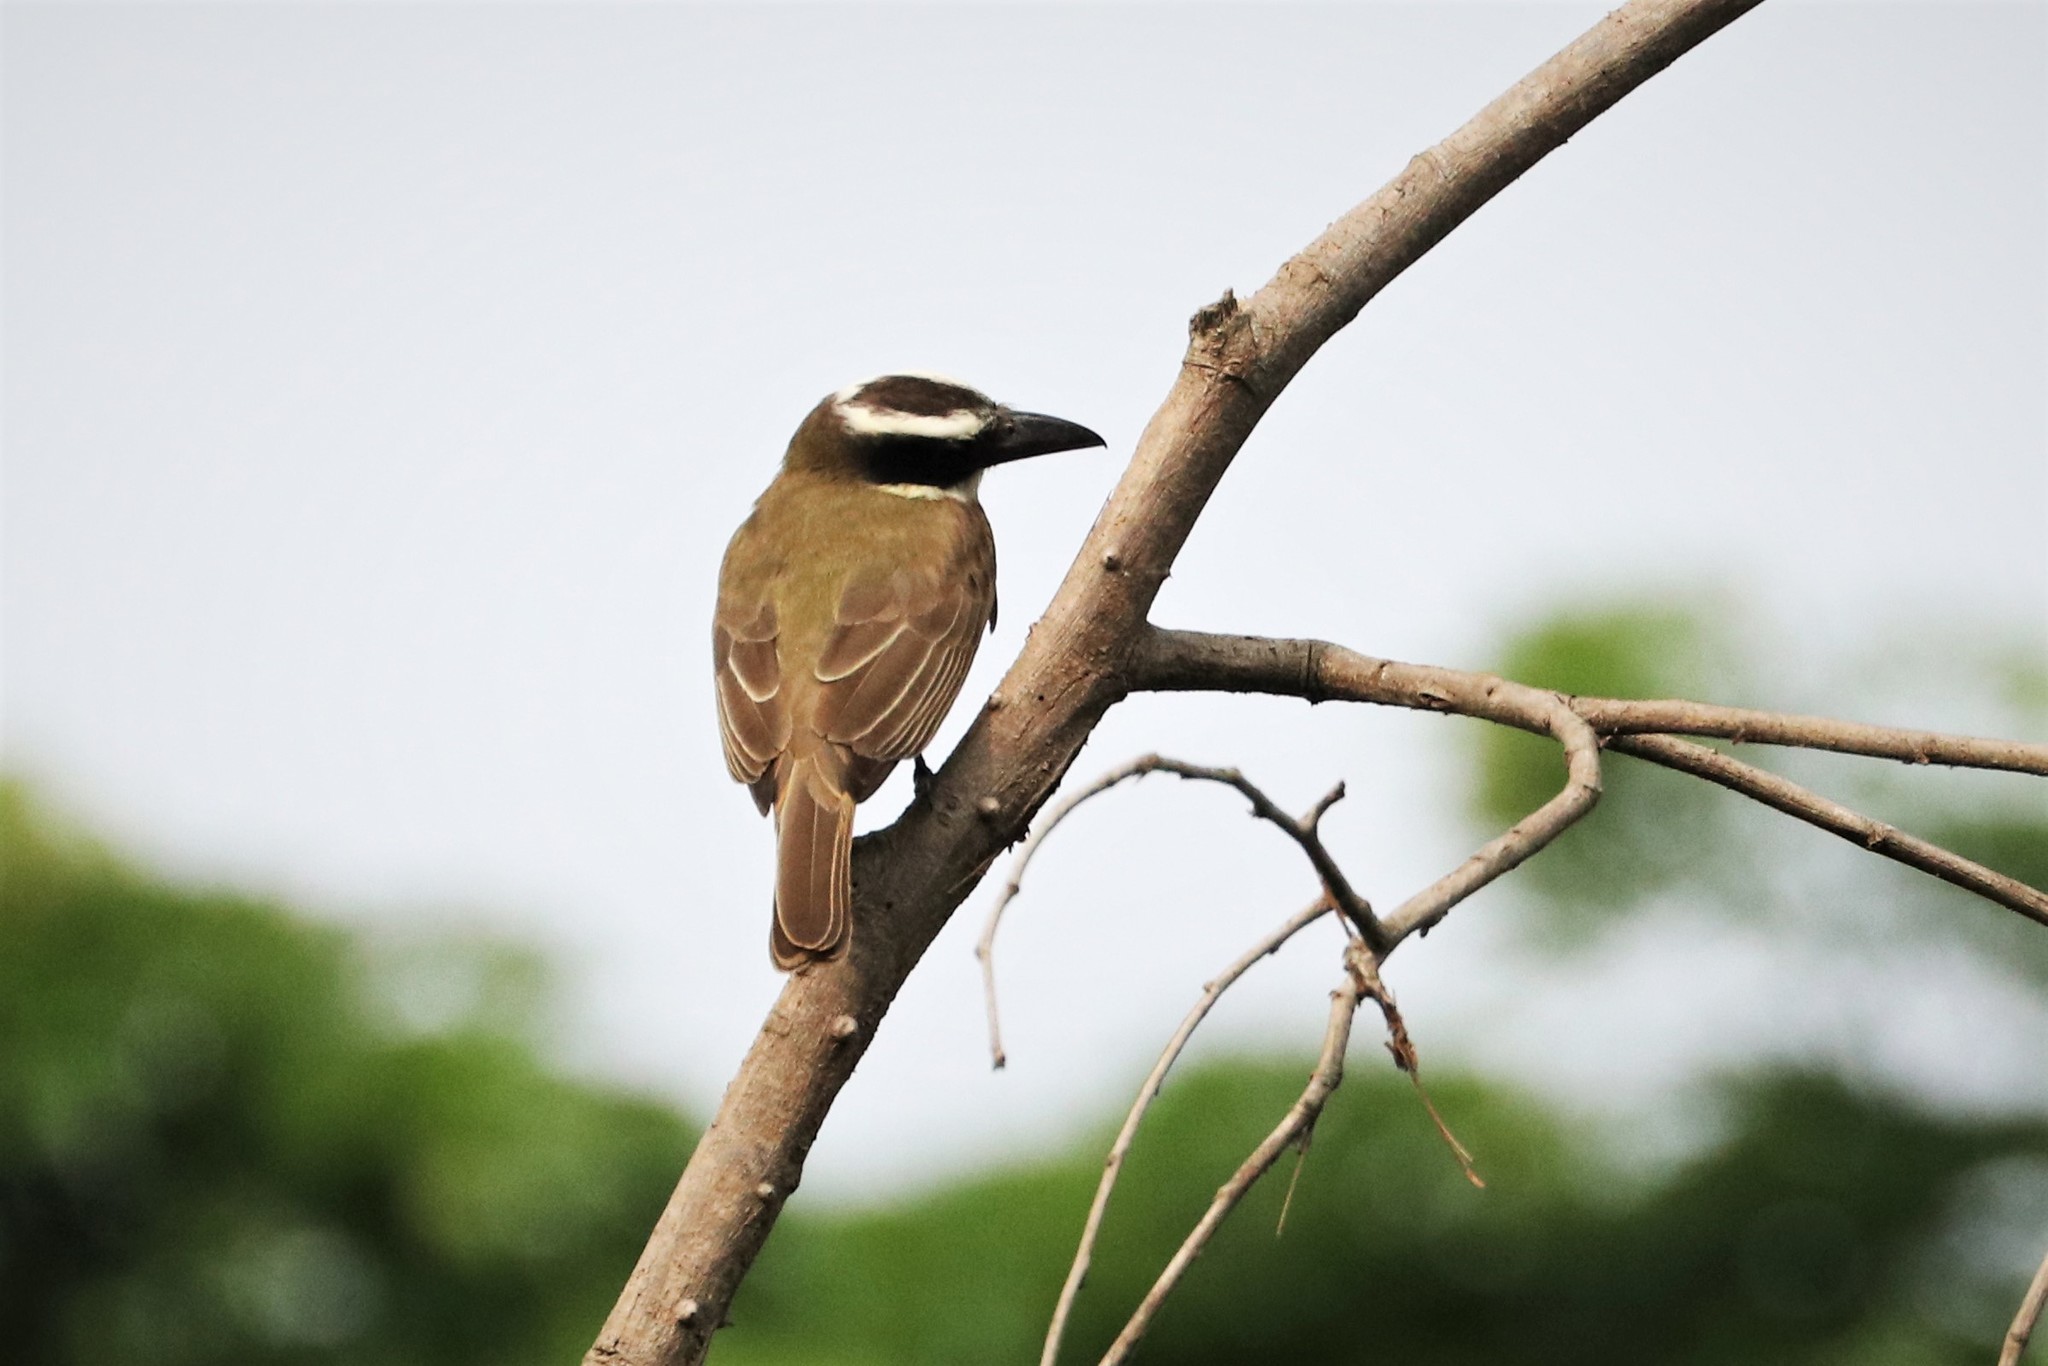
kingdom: Animalia
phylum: Chordata
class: Aves
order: Passeriformes
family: Tyrannidae
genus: Megarynchus
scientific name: Megarynchus pitangua
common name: Boat-billed flycatcher
